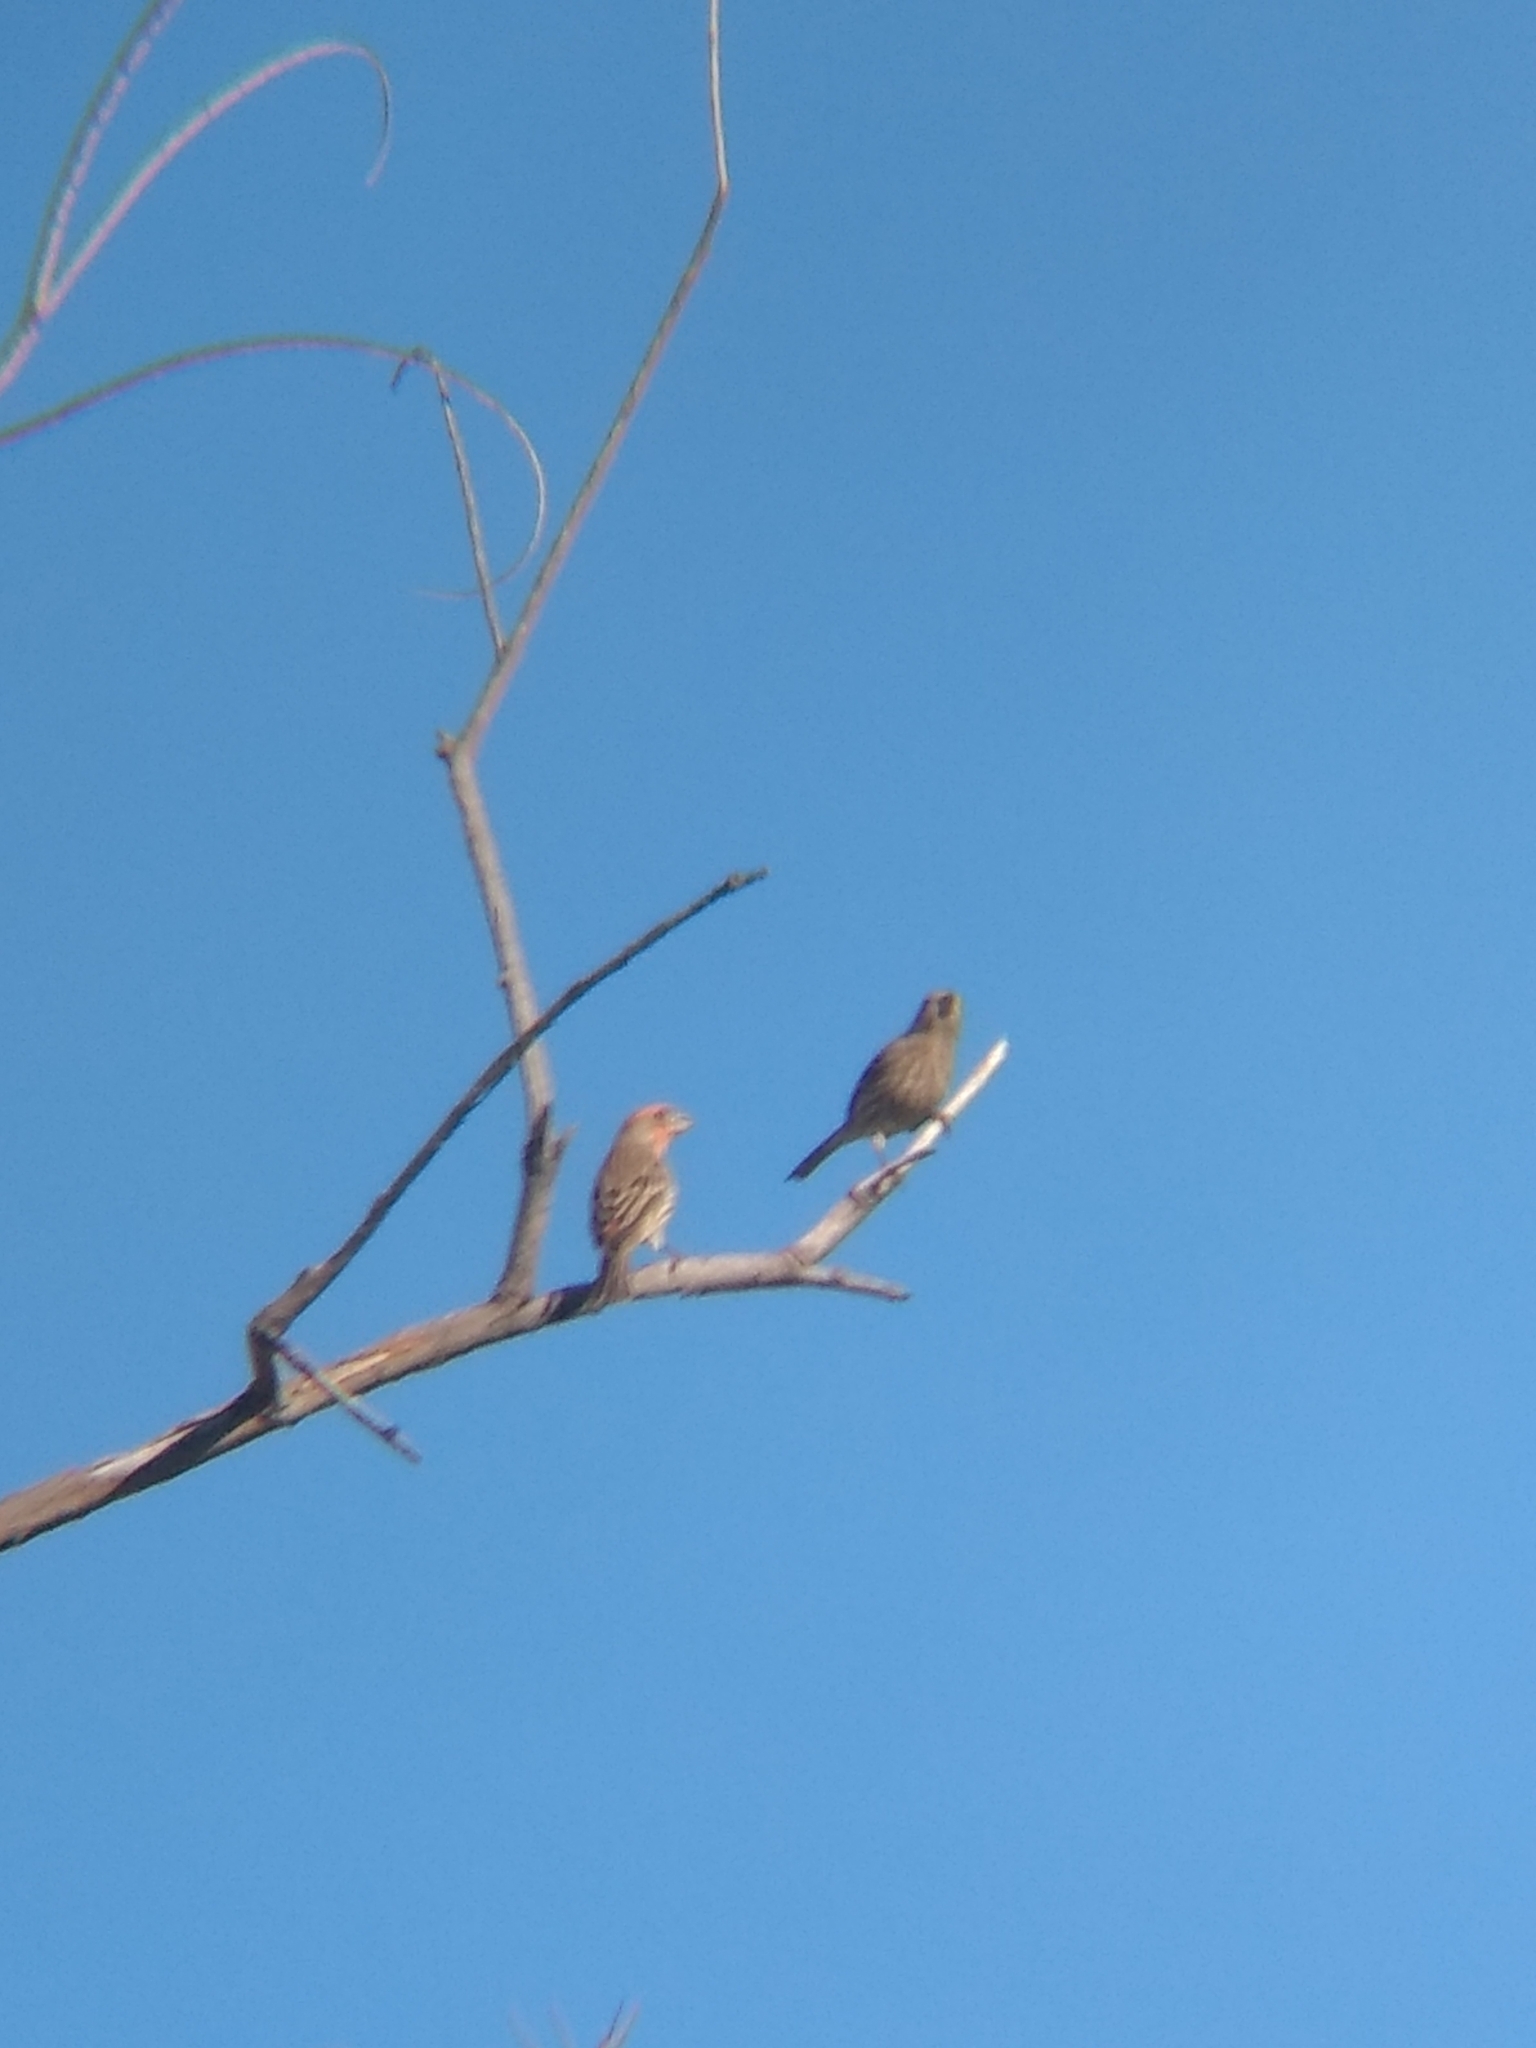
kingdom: Animalia
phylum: Chordata
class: Aves
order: Passeriformes
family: Fringillidae
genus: Haemorhous
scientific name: Haemorhous mexicanus
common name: House finch
